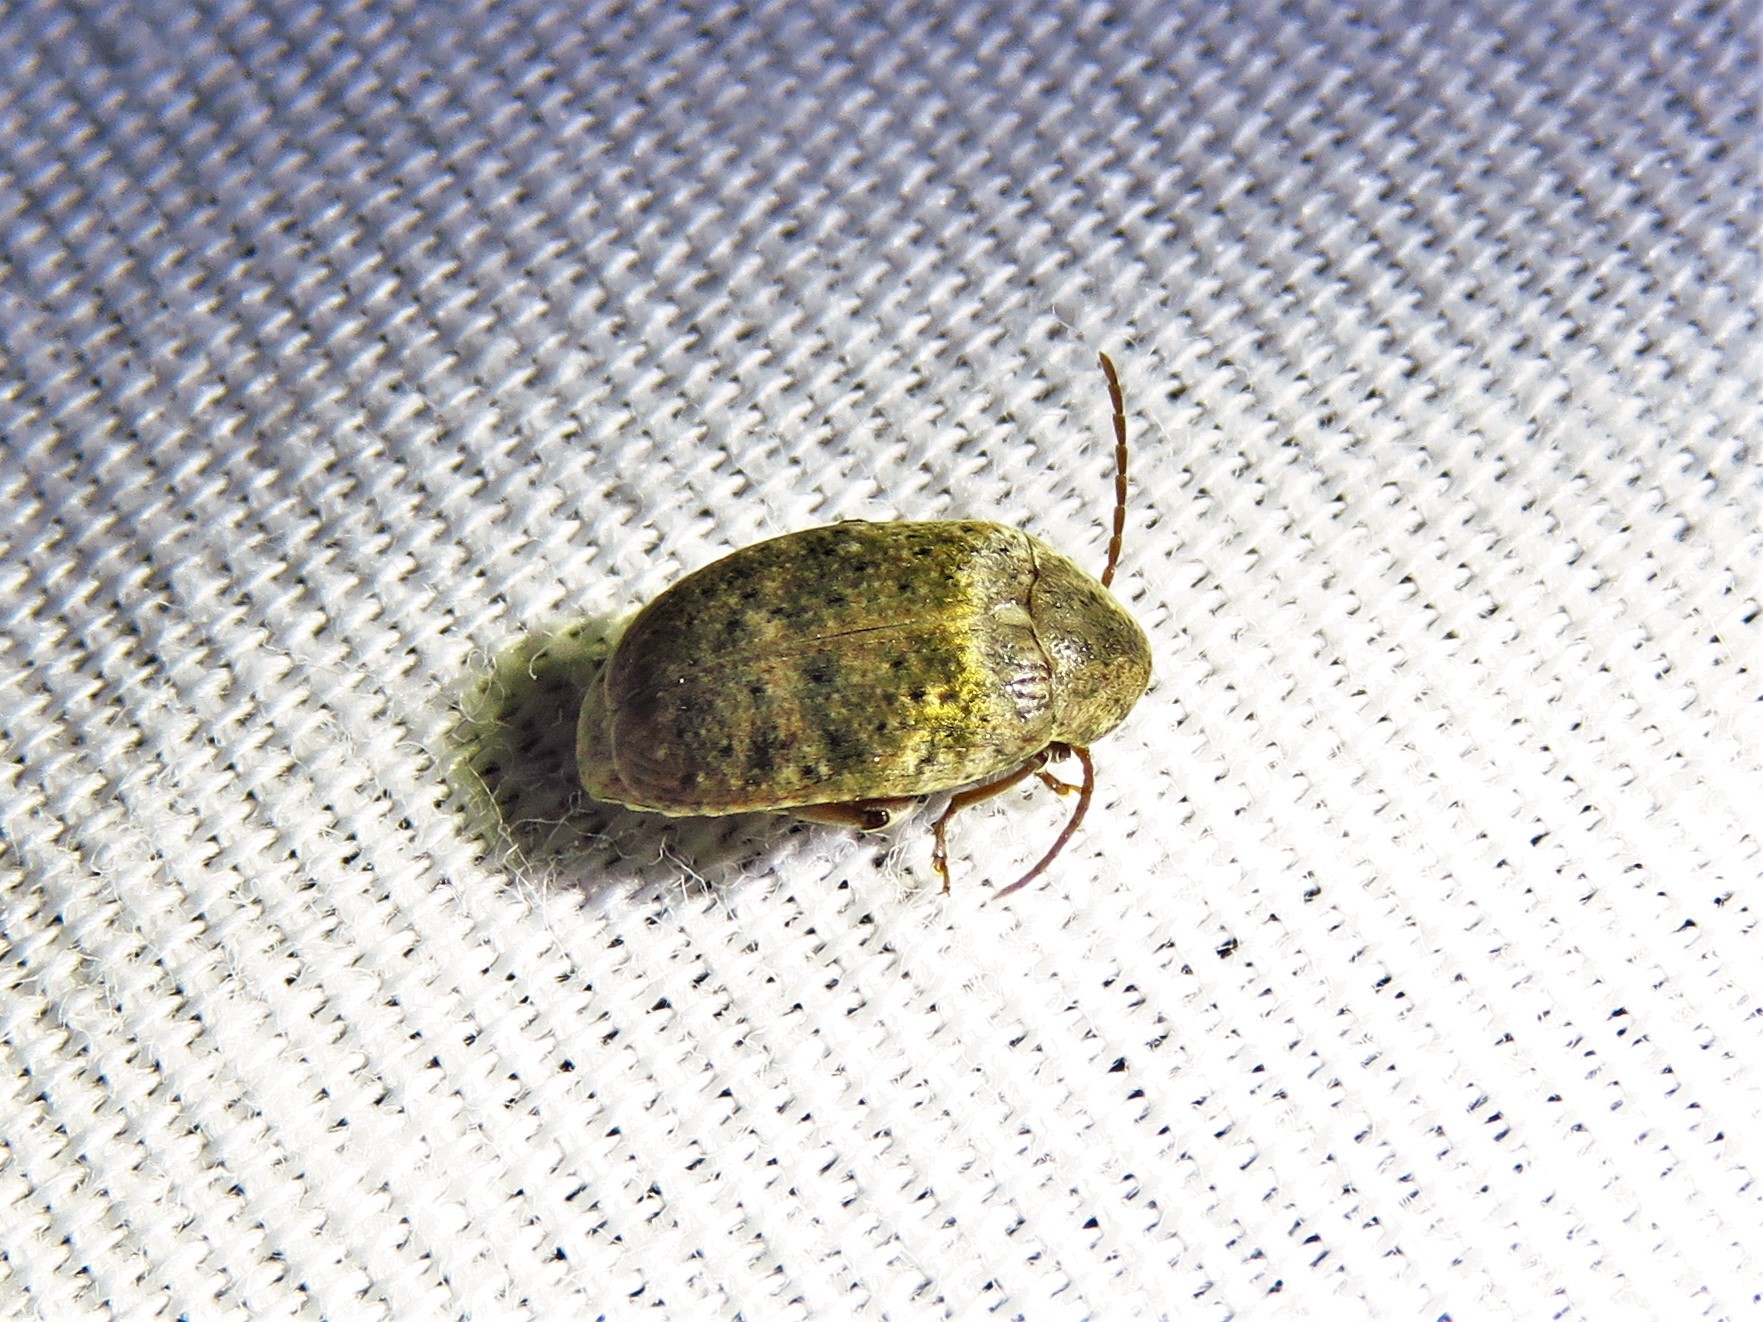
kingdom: Animalia
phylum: Arthropoda
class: Insecta
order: Coleoptera
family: Chrysomelidae
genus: Amblycerus
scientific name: Amblycerus robiniae
